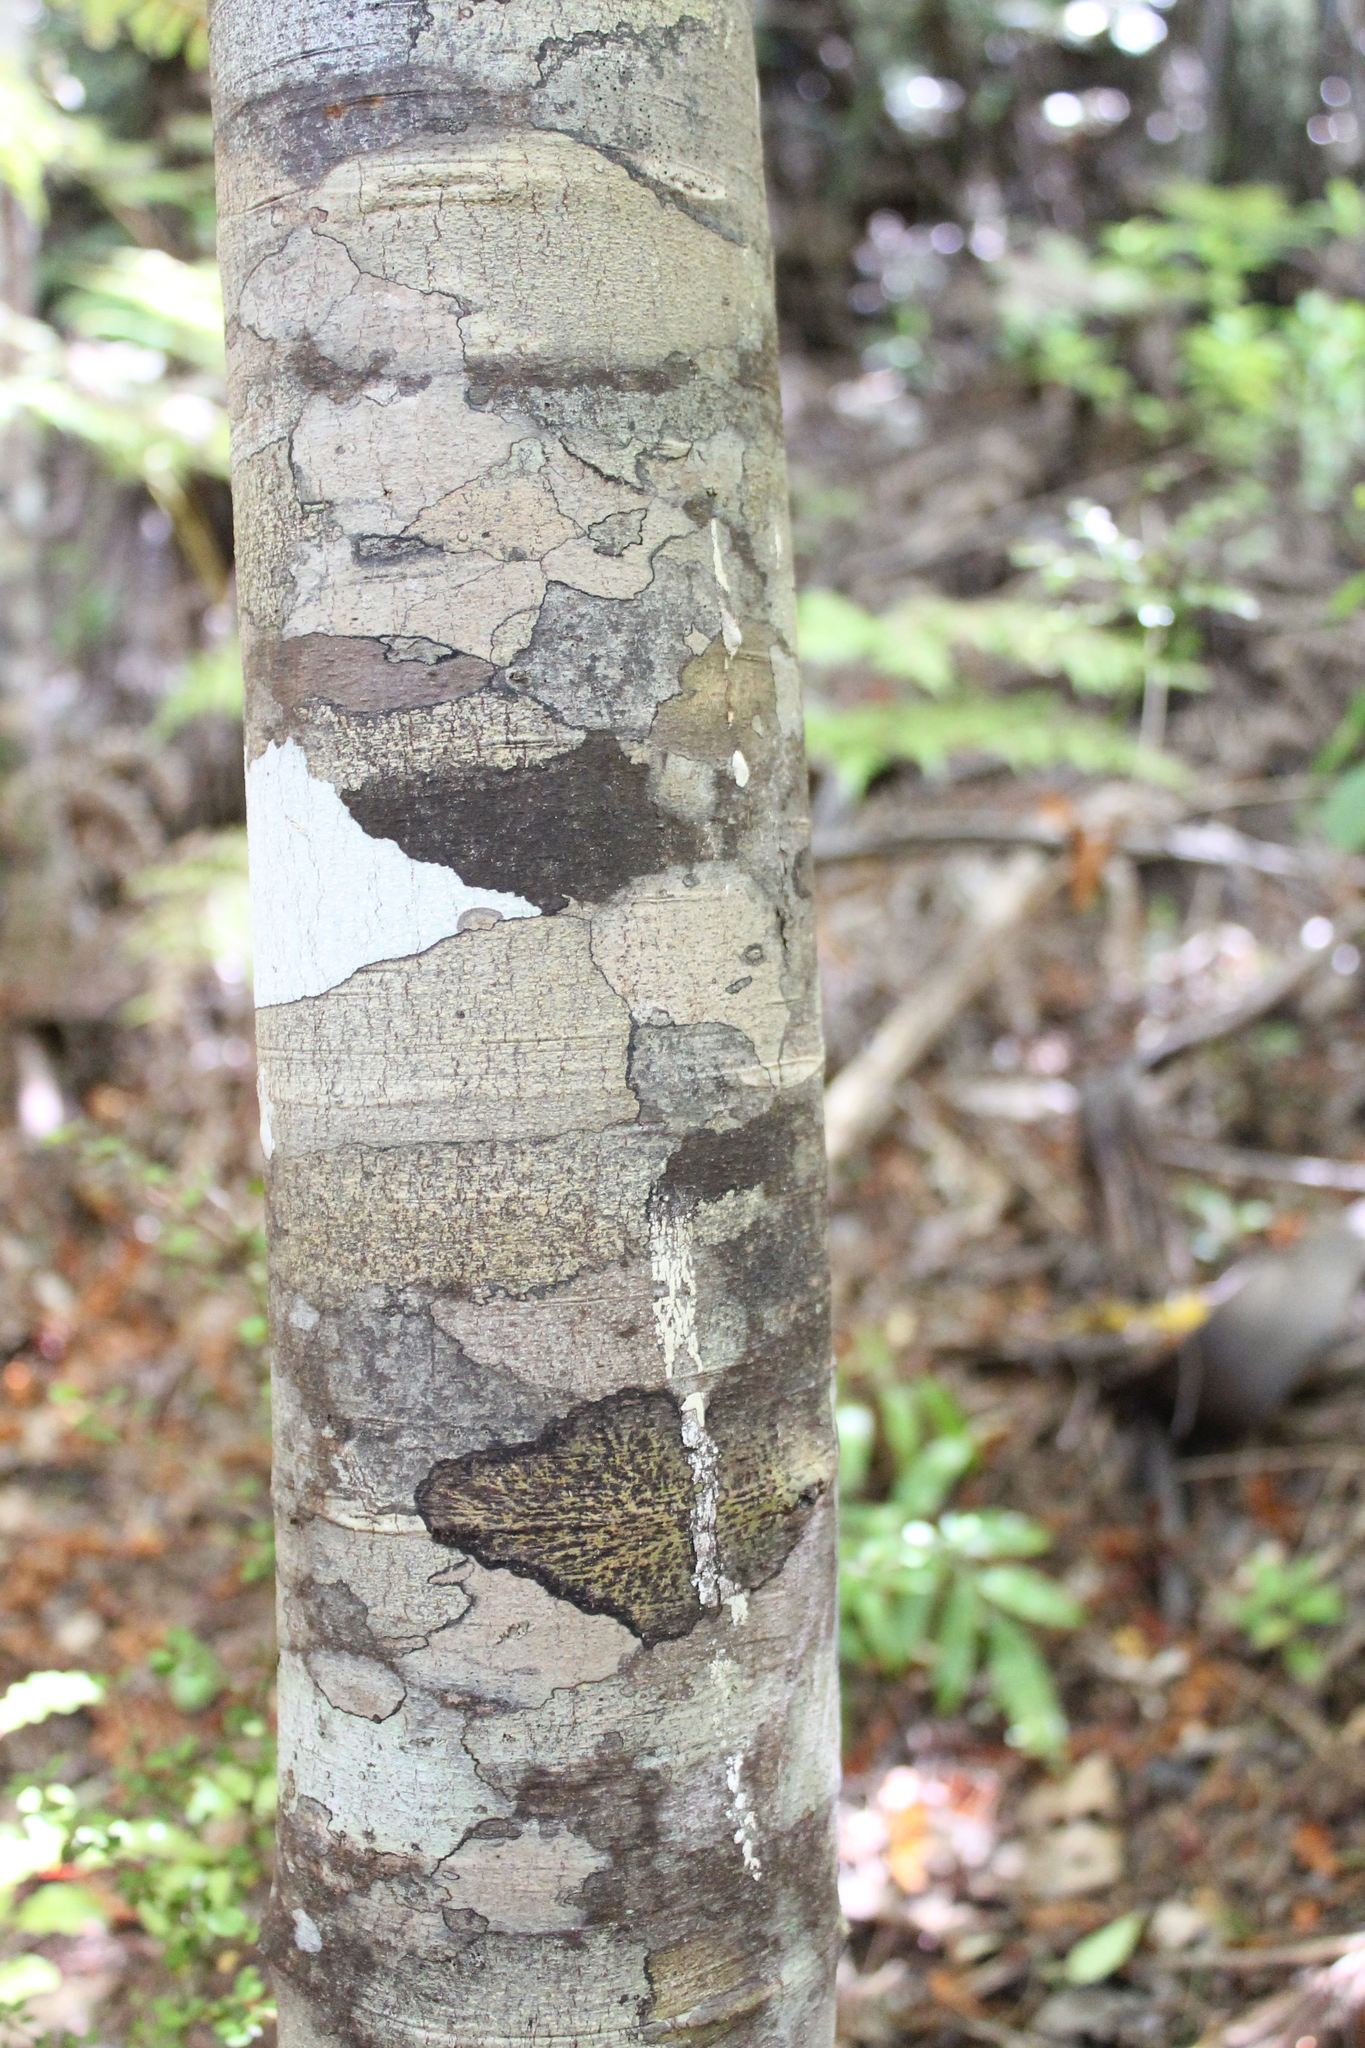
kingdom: Plantae
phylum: Tracheophyta
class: Pinopsida
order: Pinales
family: Phyllocladaceae
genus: Phyllocladus
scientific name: Phyllocladus trichomanoides
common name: Celery pine
